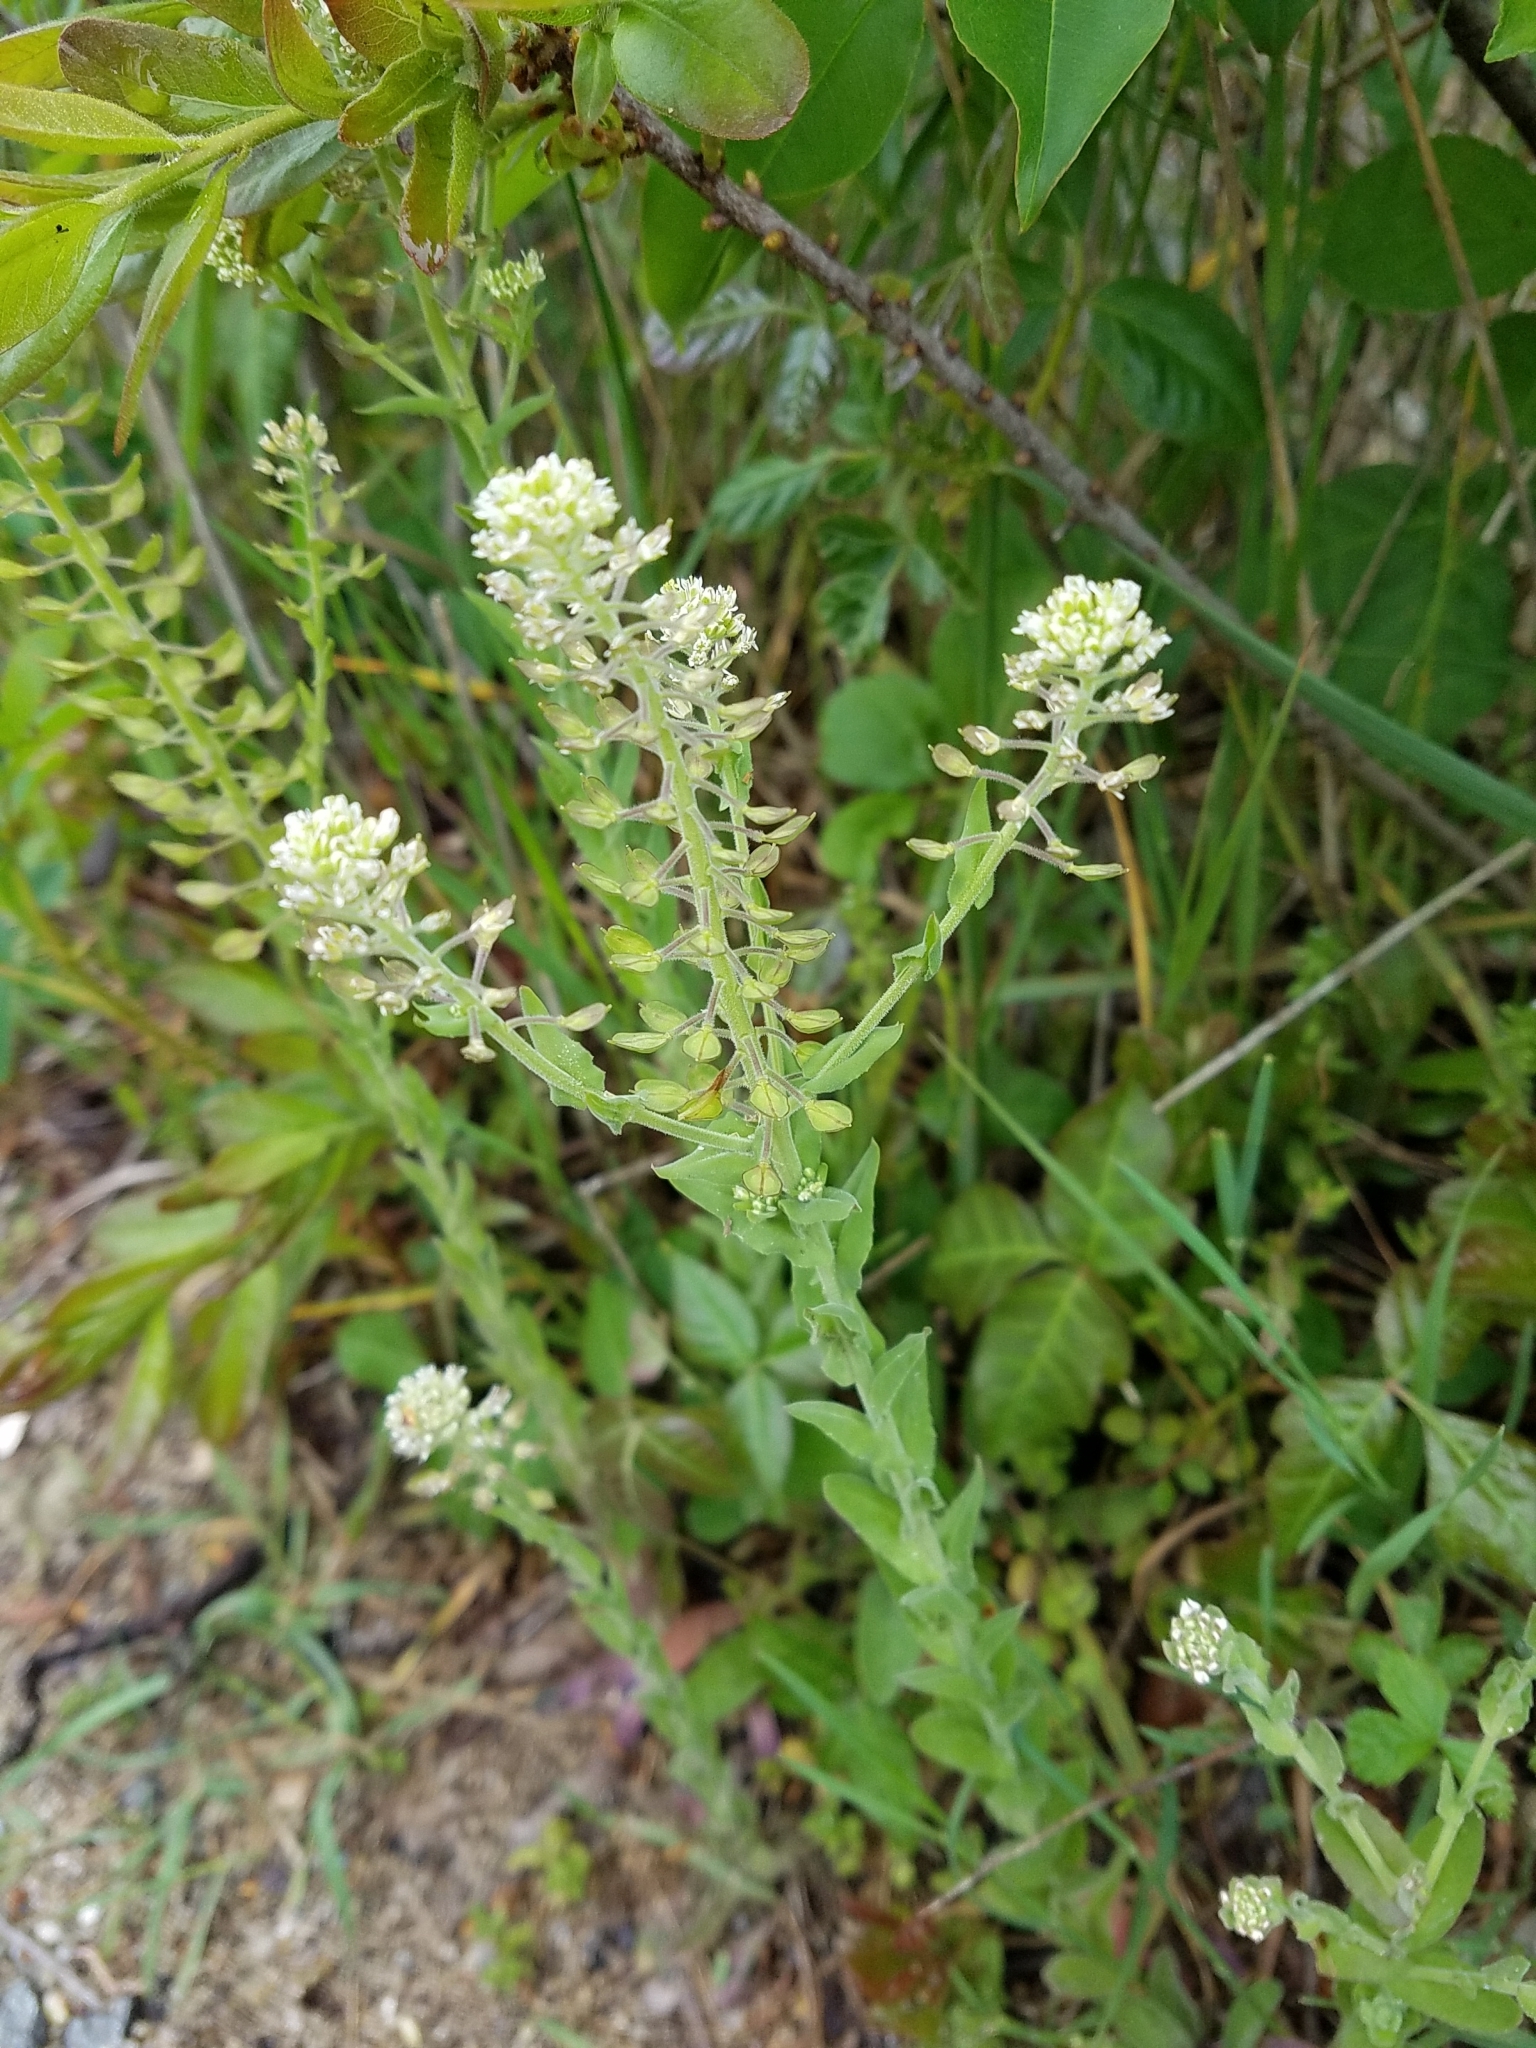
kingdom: Plantae
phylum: Tracheophyta
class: Magnoliopsida
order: Brassicales
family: Brassicaceae
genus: Lepidium
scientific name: Lepidium campestre
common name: Field pepperwort
